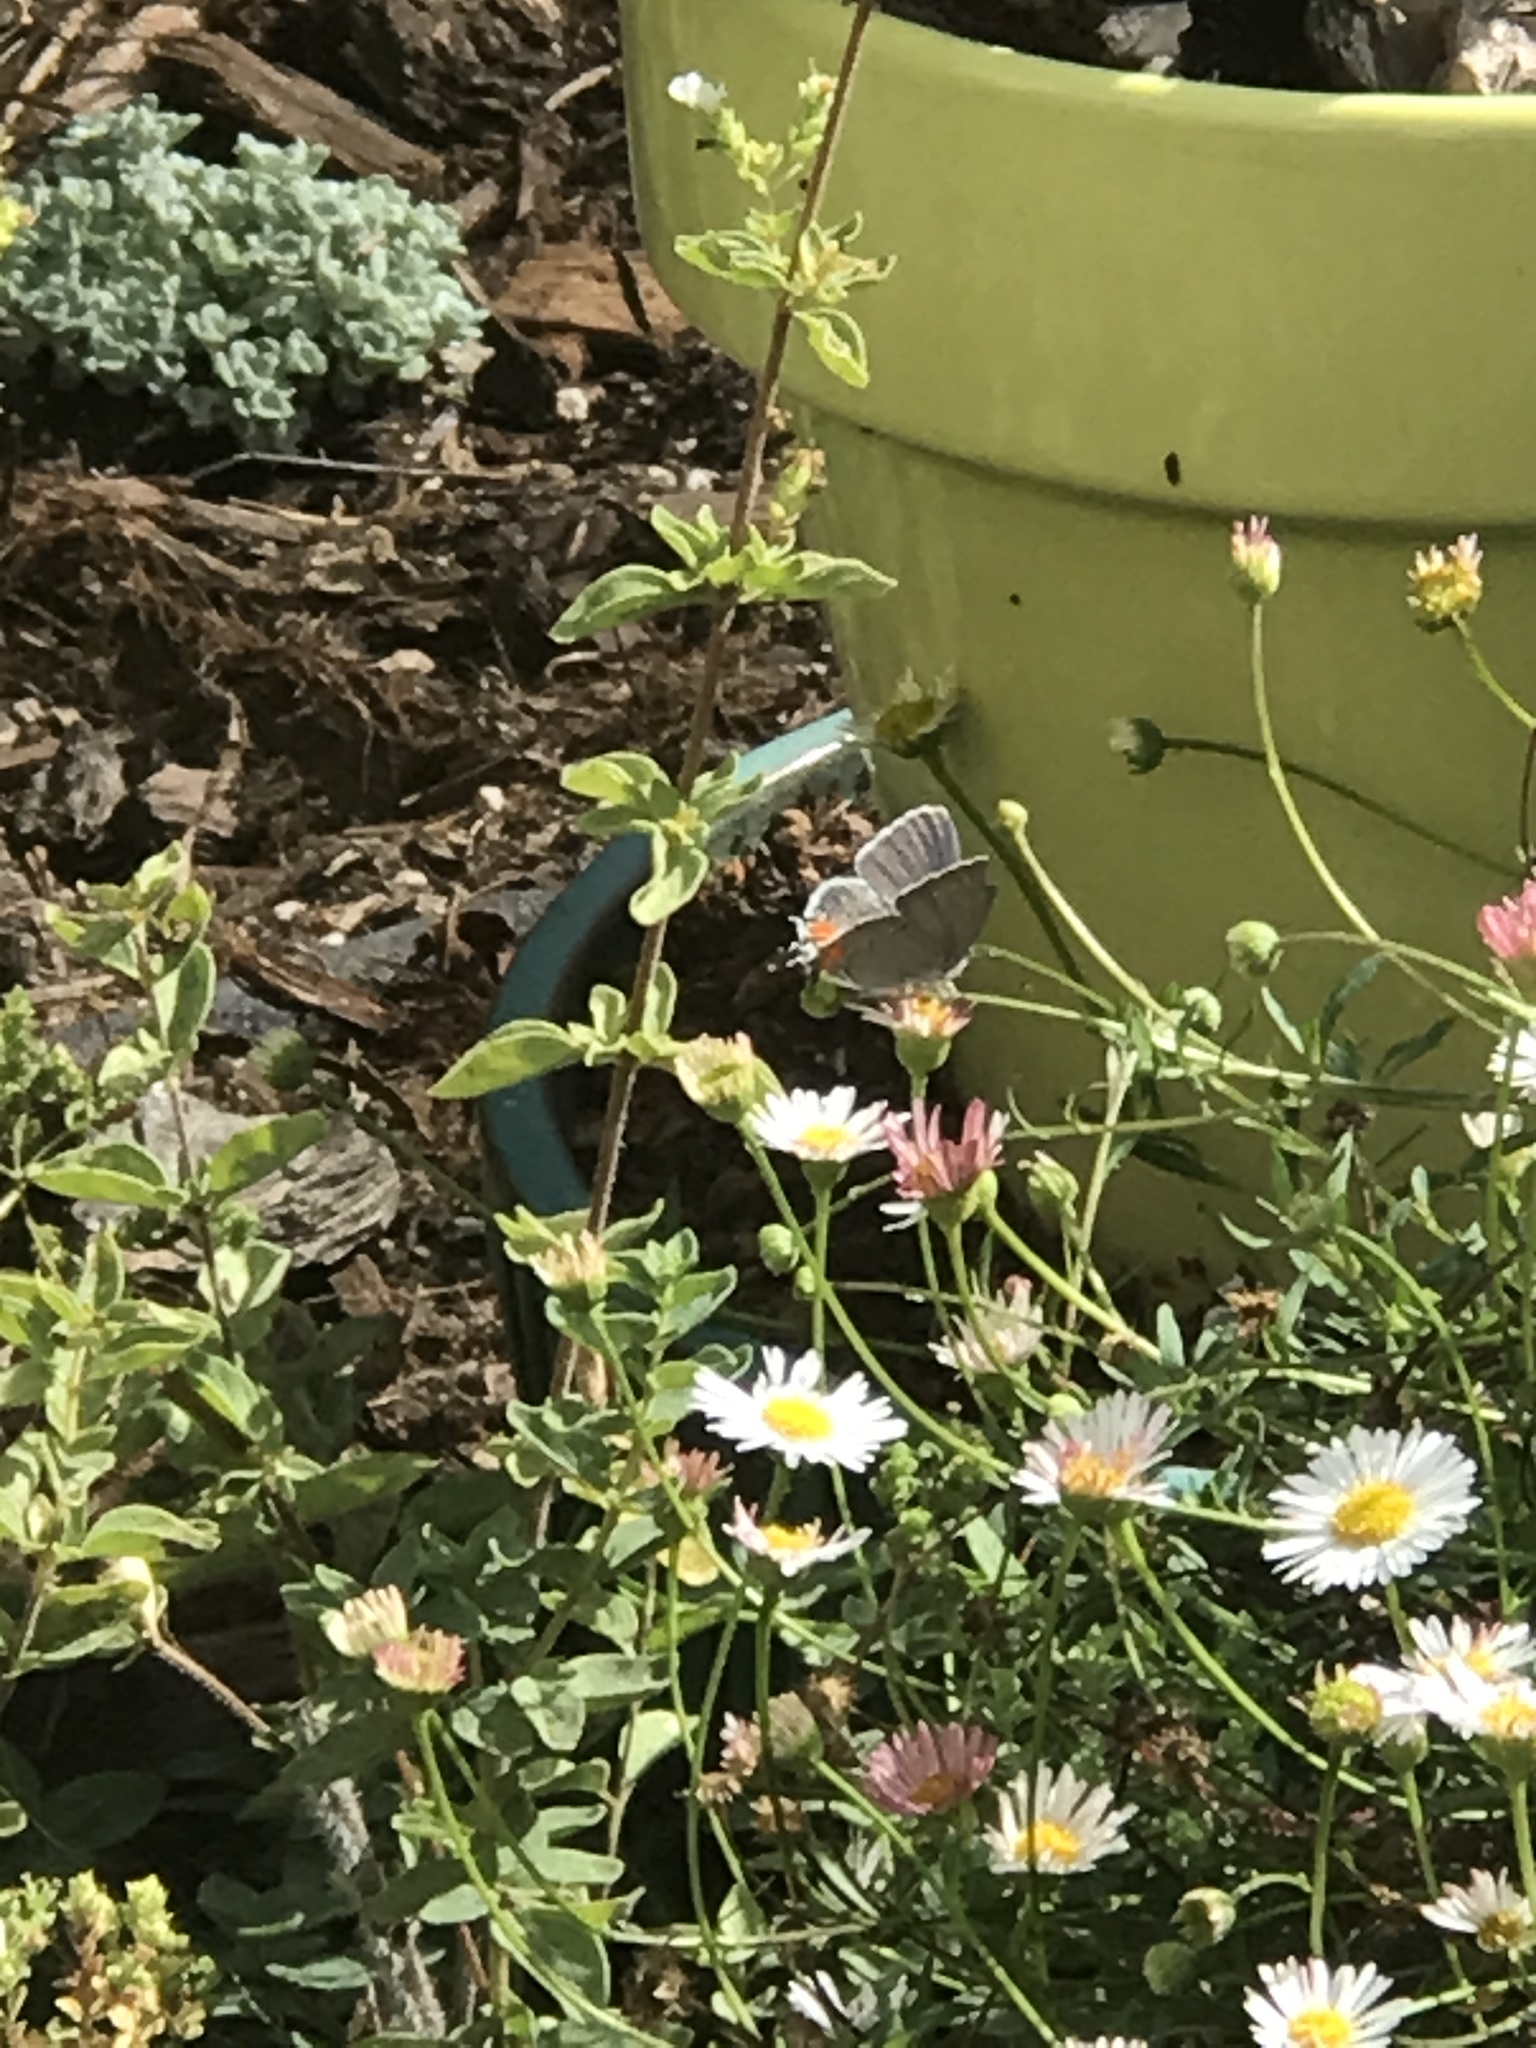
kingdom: Animalia
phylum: Arthropoda
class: Insecta
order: Lepidoptera
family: Lycaenidae
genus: Strymon
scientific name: Strymon melinus
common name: Gray hairstreak
